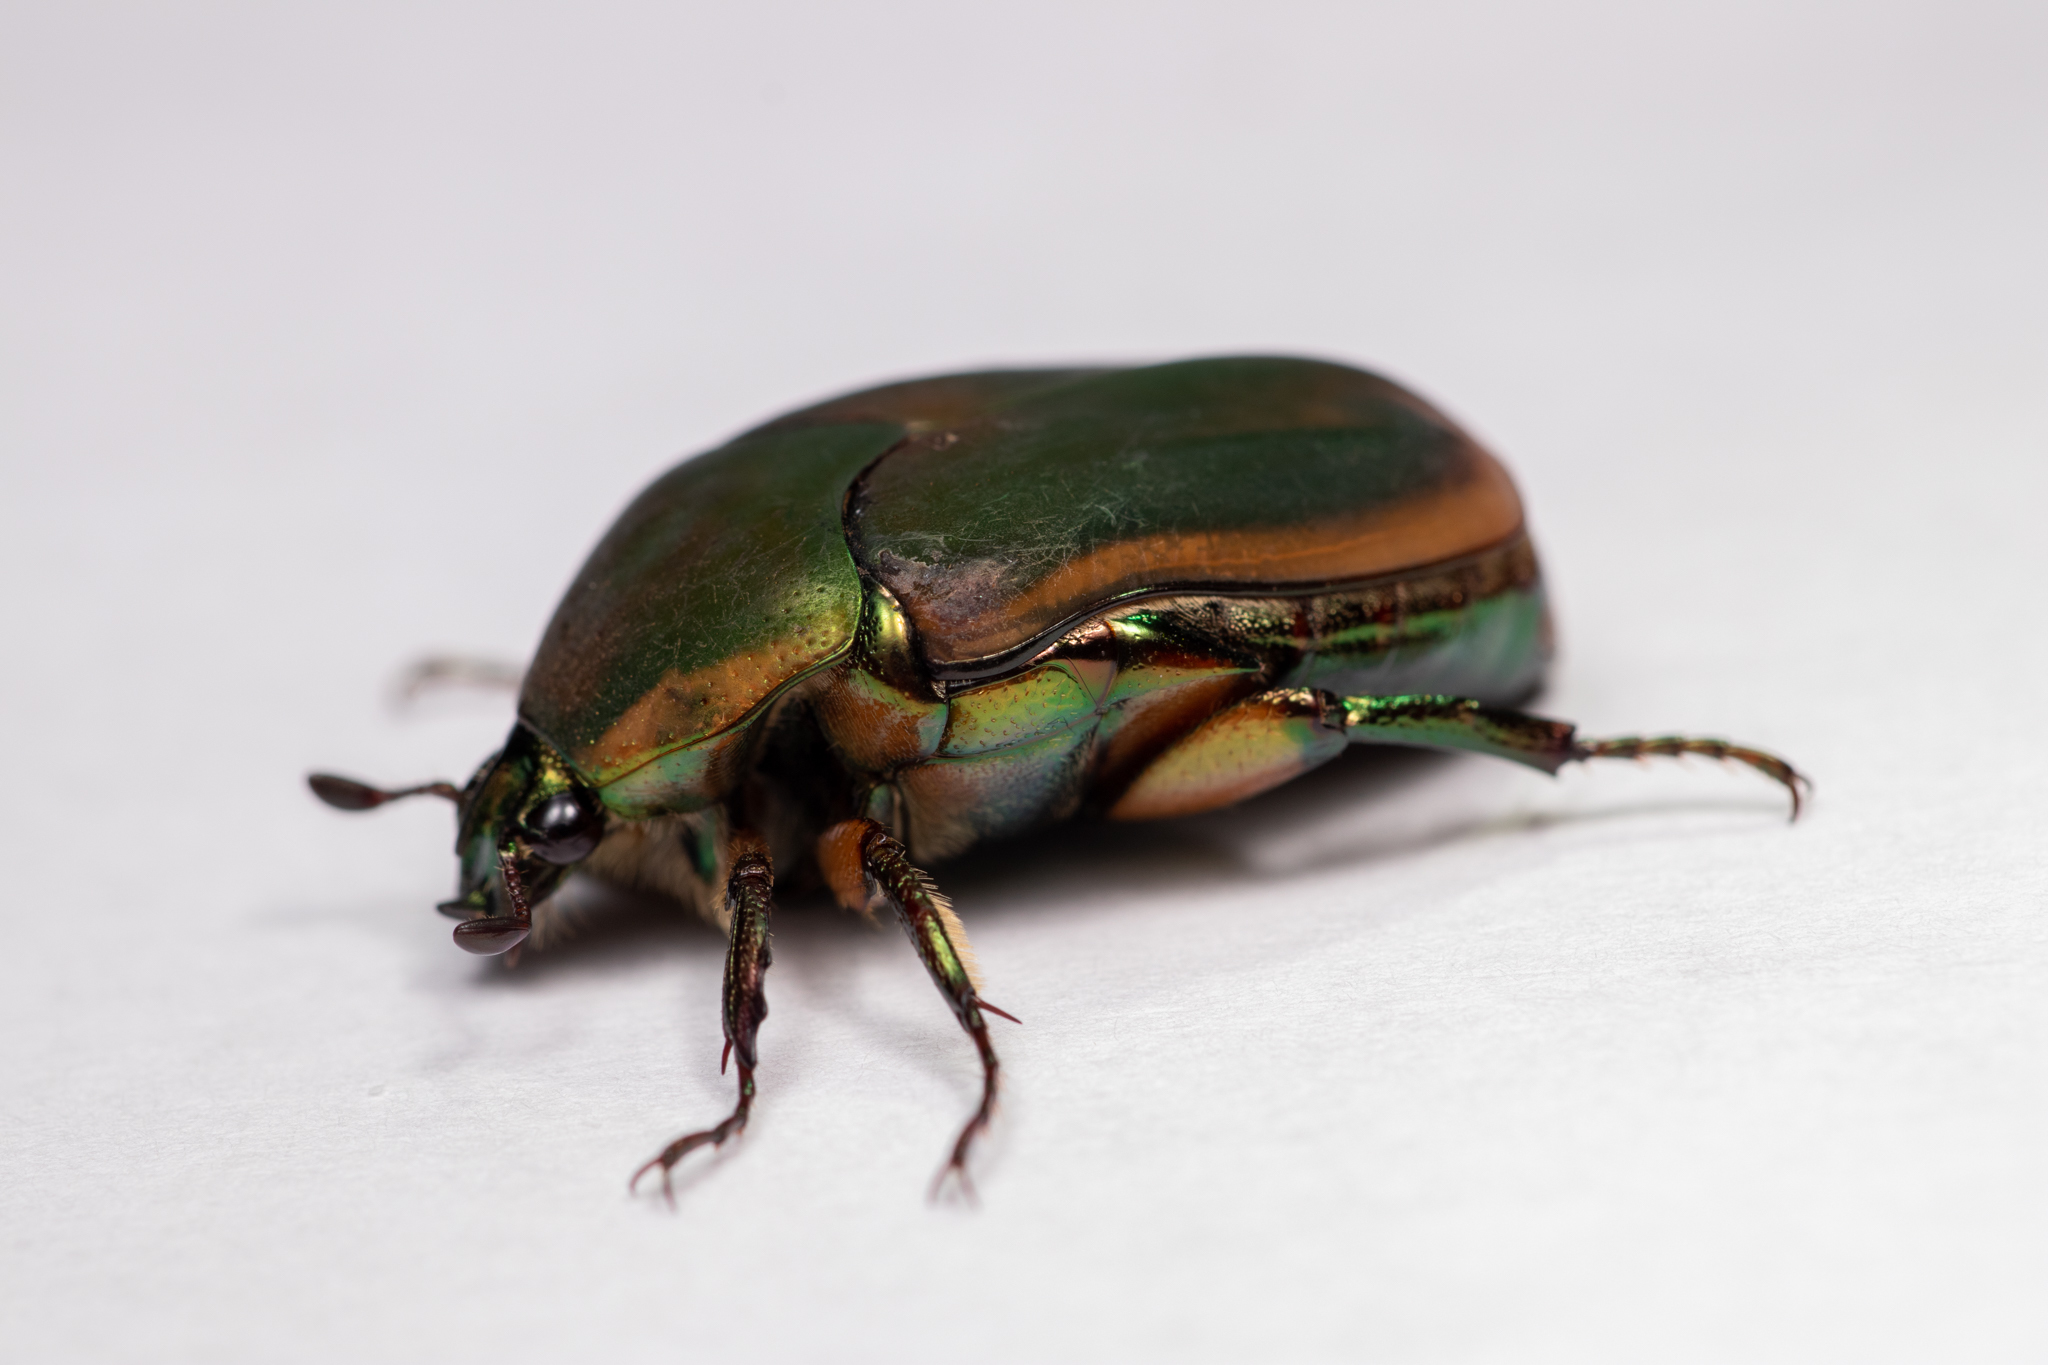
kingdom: Animalia
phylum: Arthropoda
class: Insecta
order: Coleoptera
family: Scarabaeidae
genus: Cotinis
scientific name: Cotinis nitida
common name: Common green june beetle
